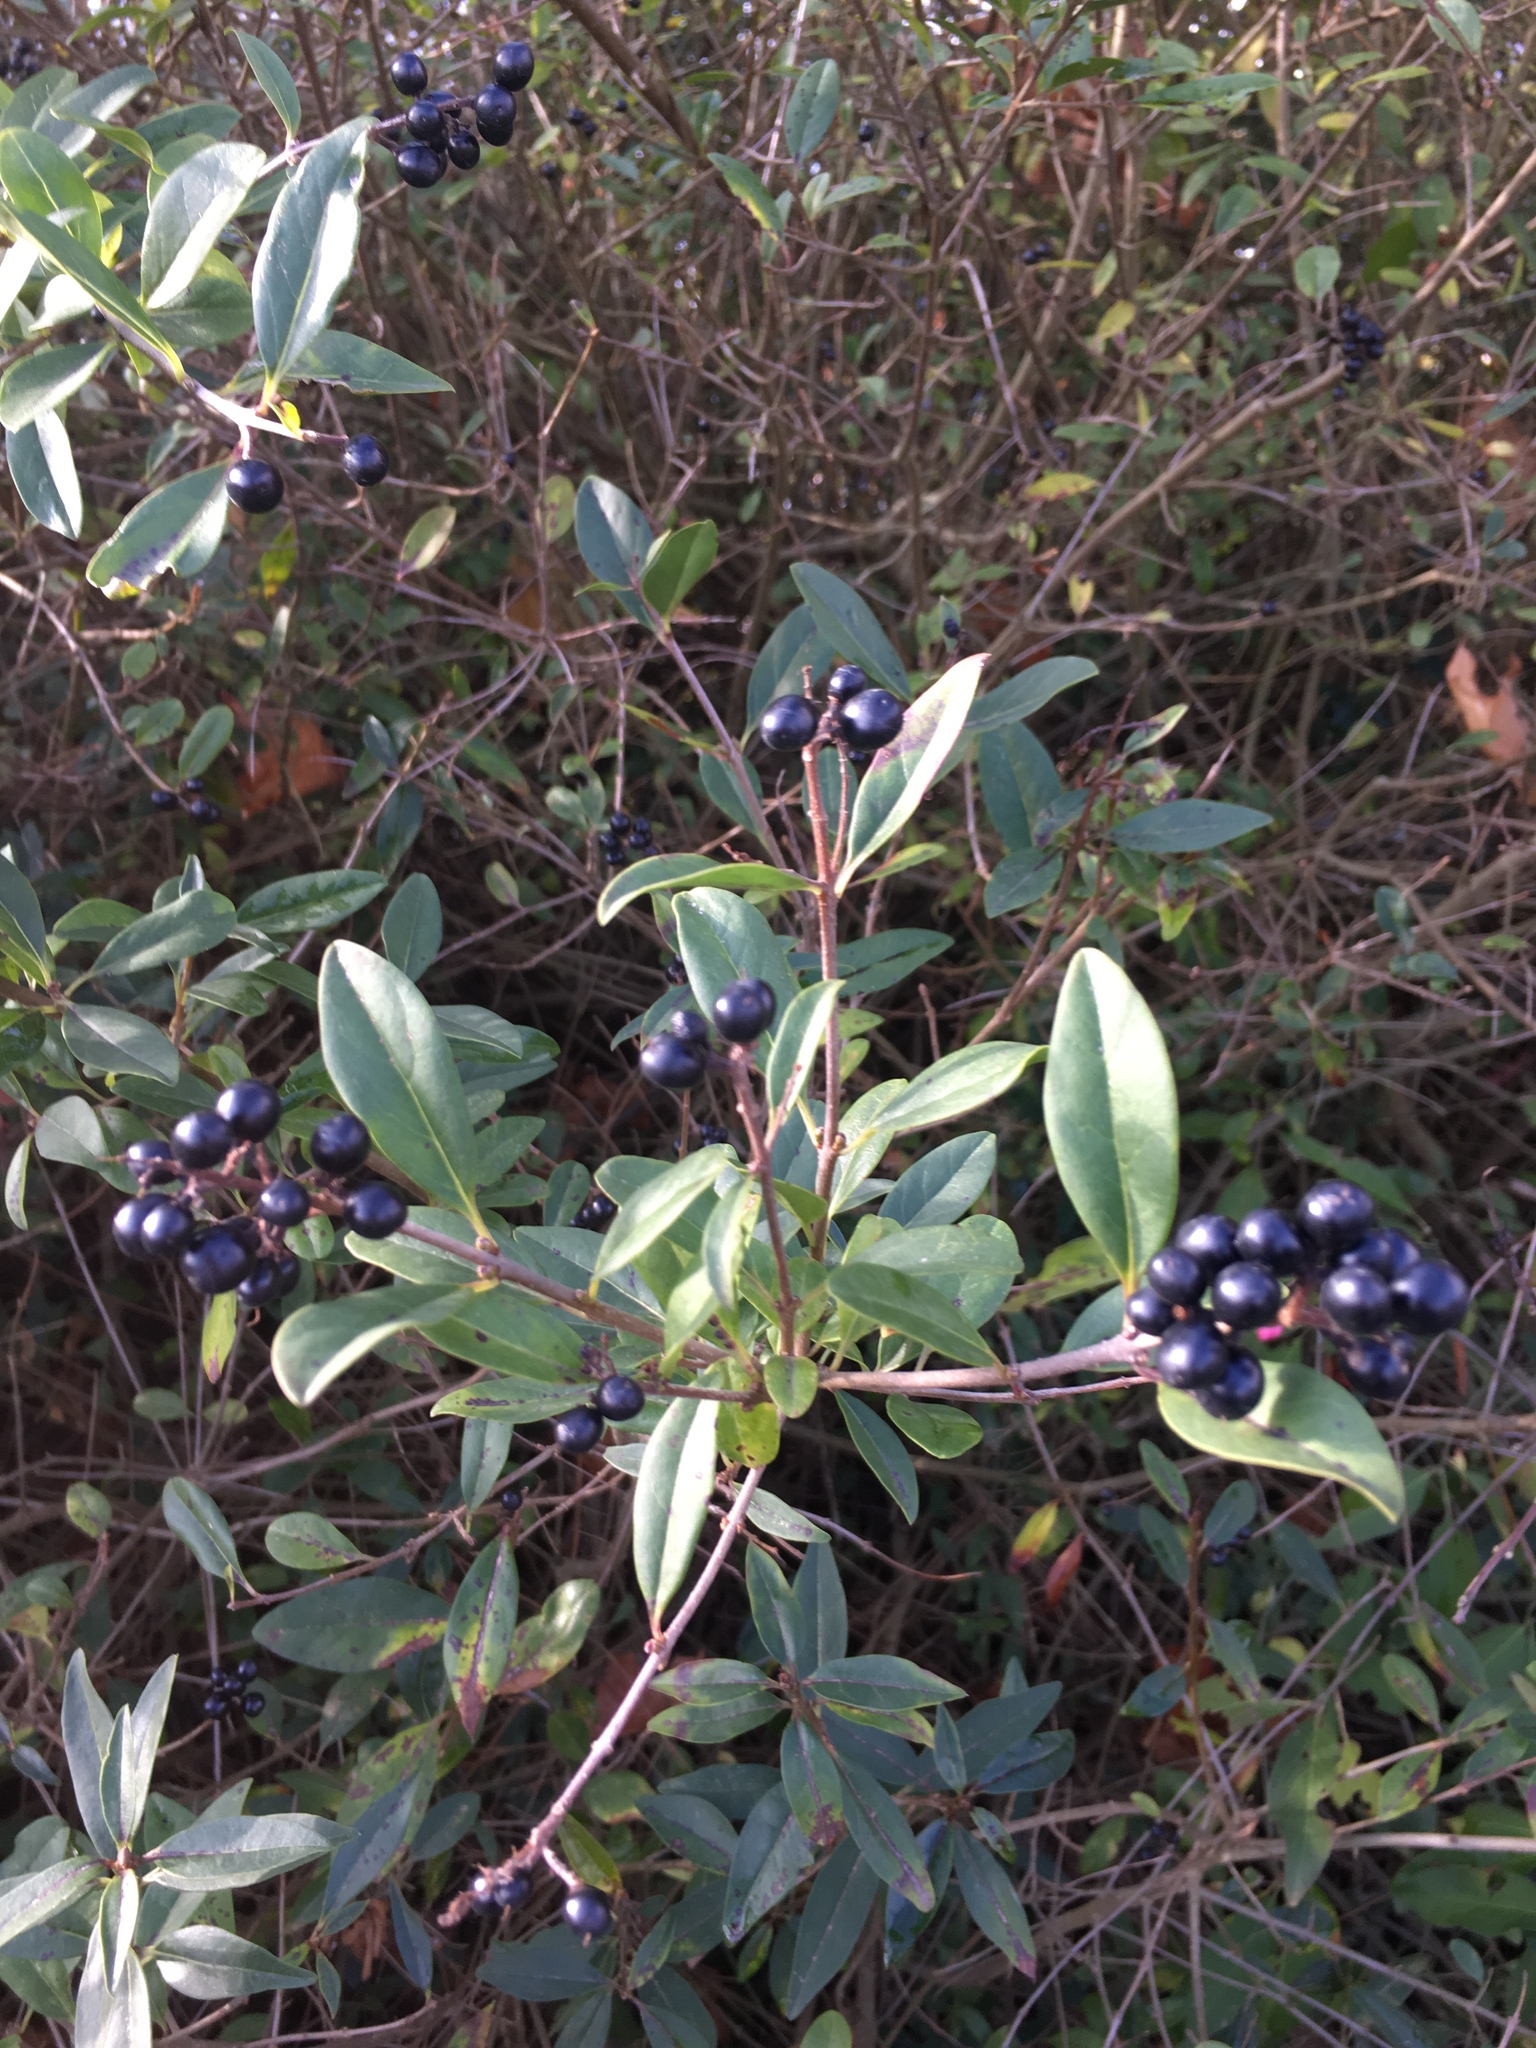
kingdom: Plantae
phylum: Tracheophyta
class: Magnoliopsida
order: Lamiales
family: Oleaceae
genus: Ligustrum
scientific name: Ligustrum vulgare
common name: Wild privet
